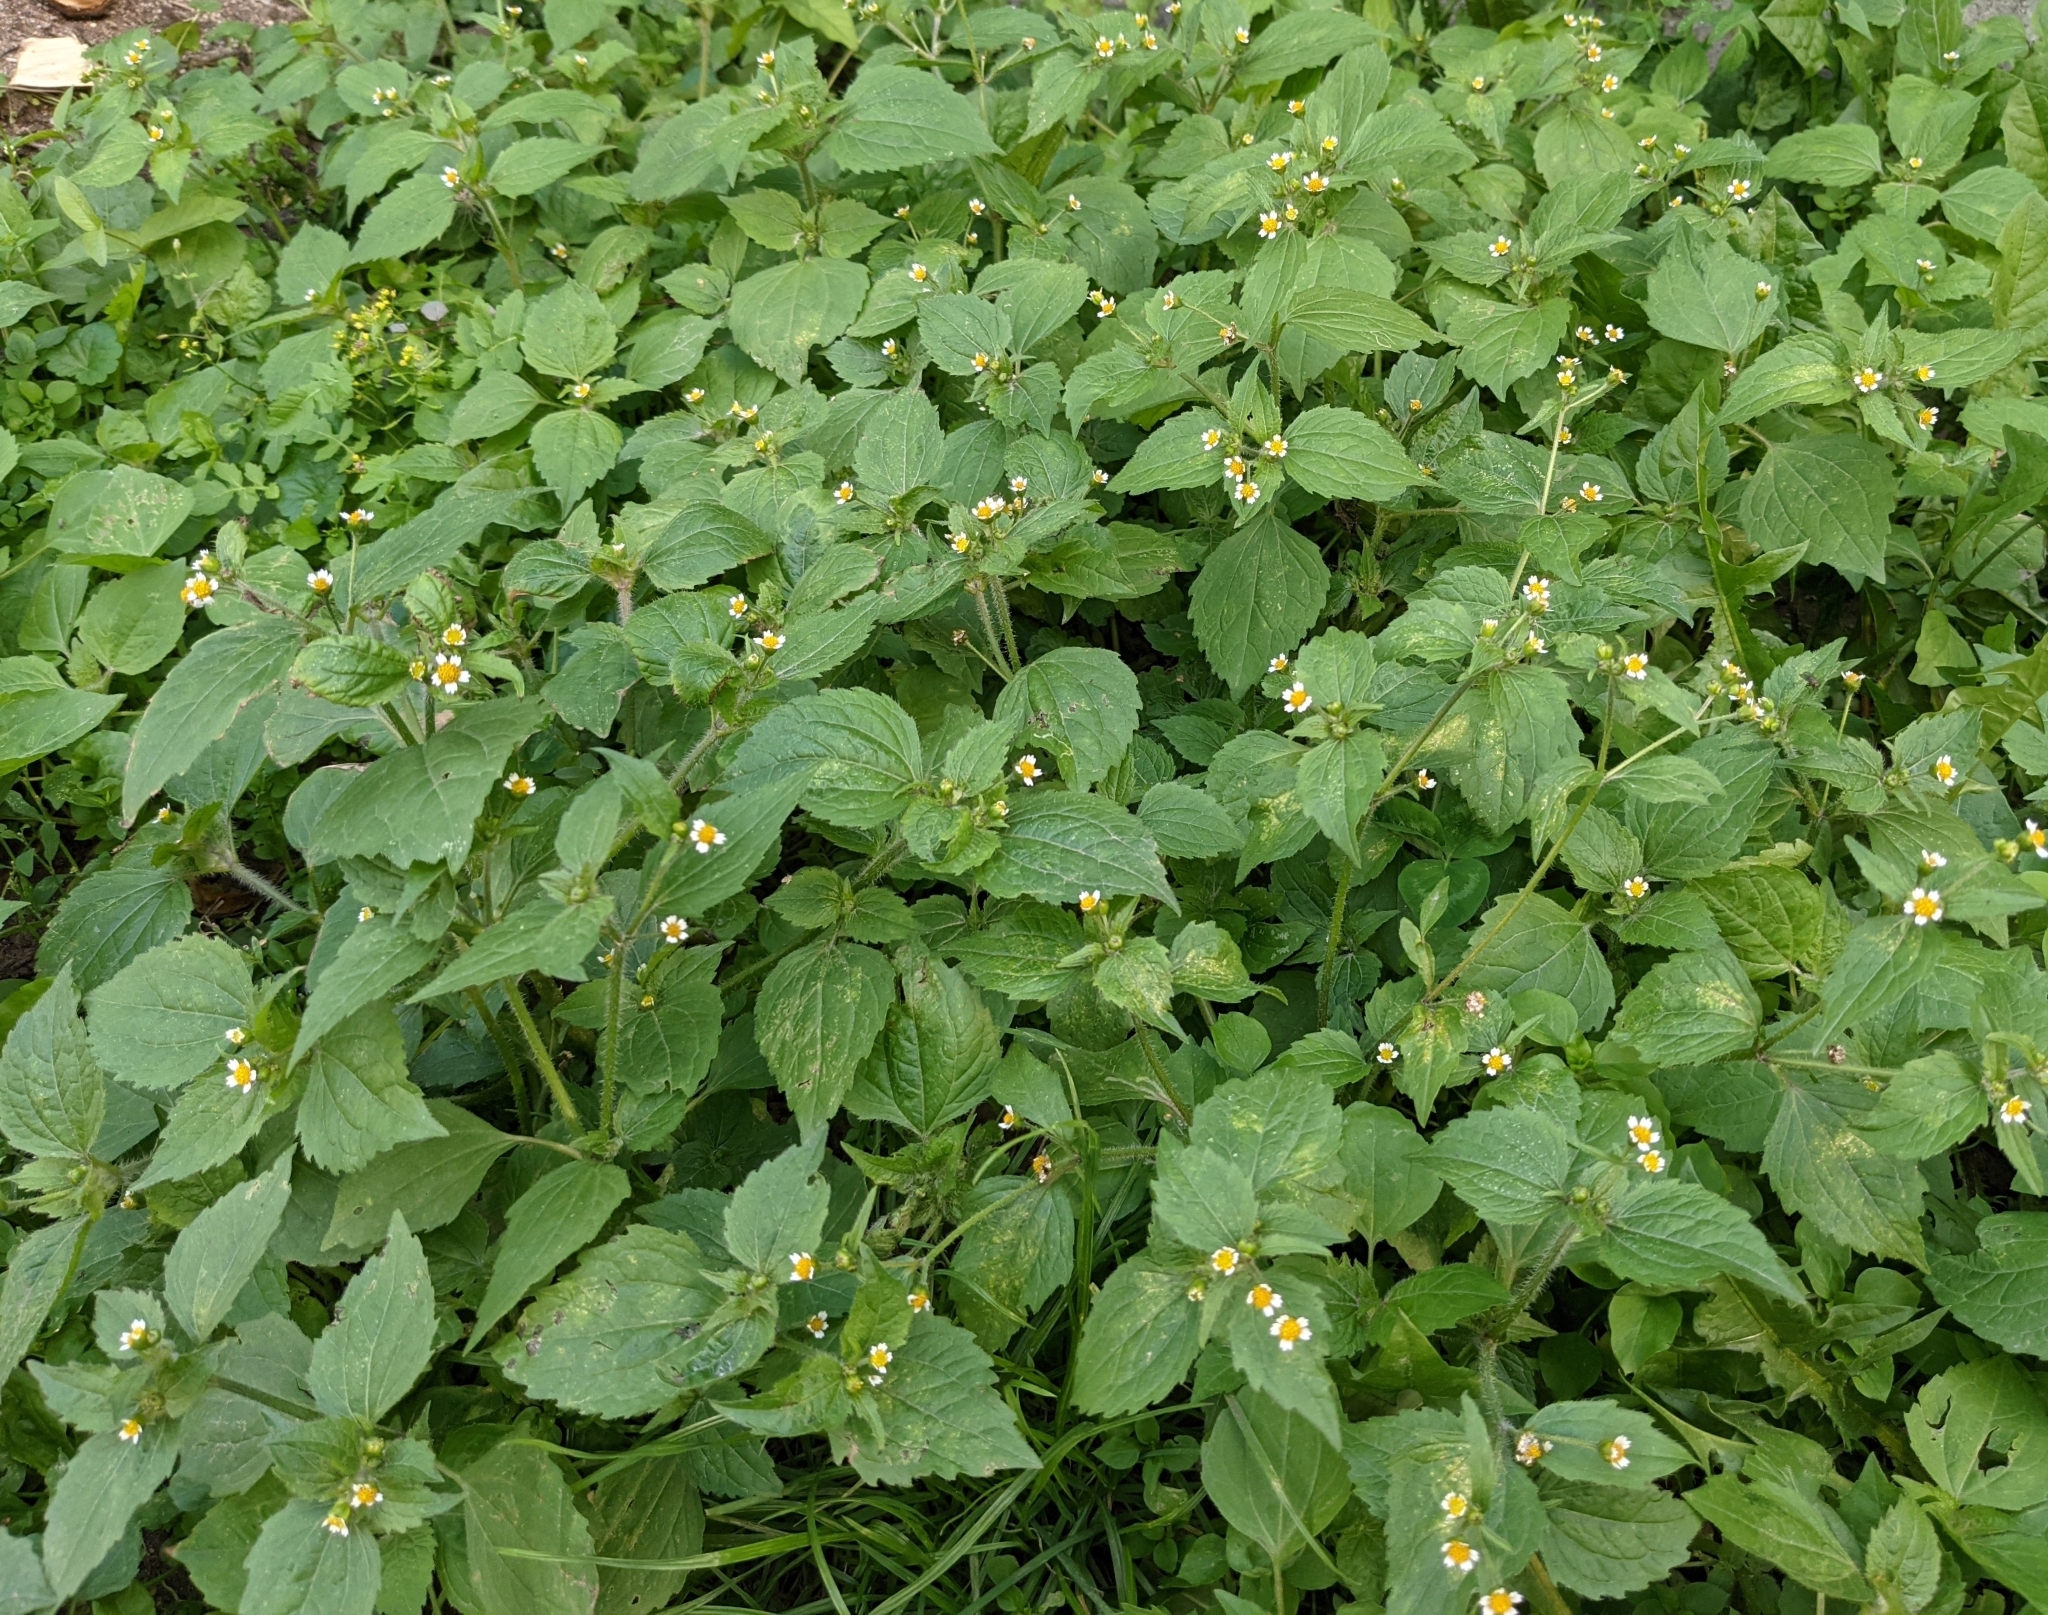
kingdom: Plantae
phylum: Tracheophyta
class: Magnoliopsida
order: Asterales
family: Asteraceae
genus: Galinsoga
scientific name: Galinsoga quadriradiata
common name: Shaggy soldier
